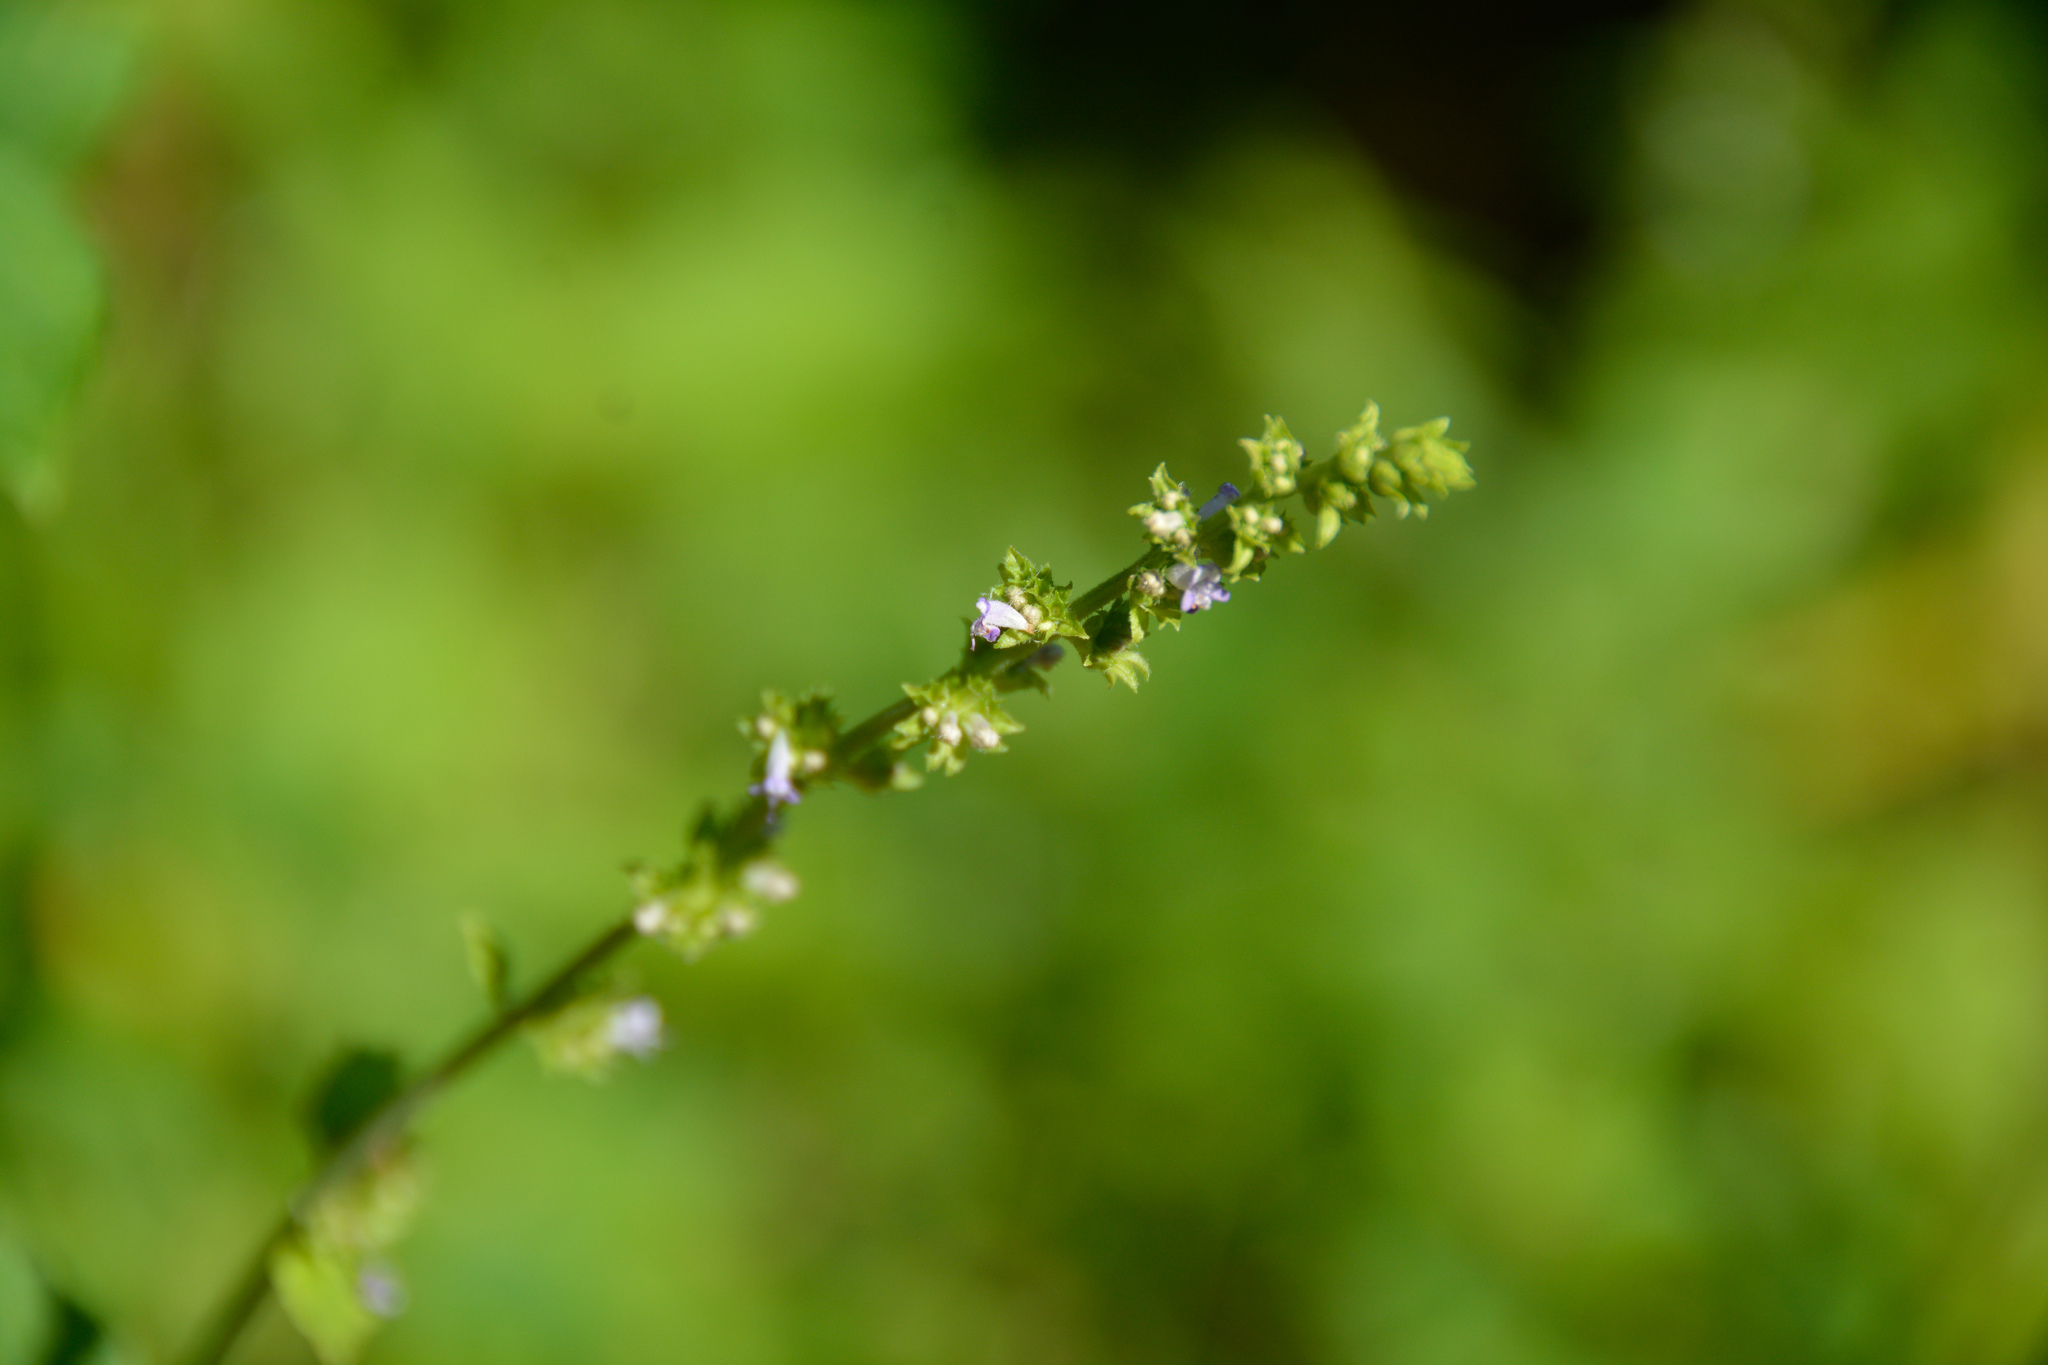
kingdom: Plantae
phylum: Tracheophyta
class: Magnoliopsida
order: Lamiales
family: Lamiaceae
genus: Cantinoa
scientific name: Cantinoa mutabilis
